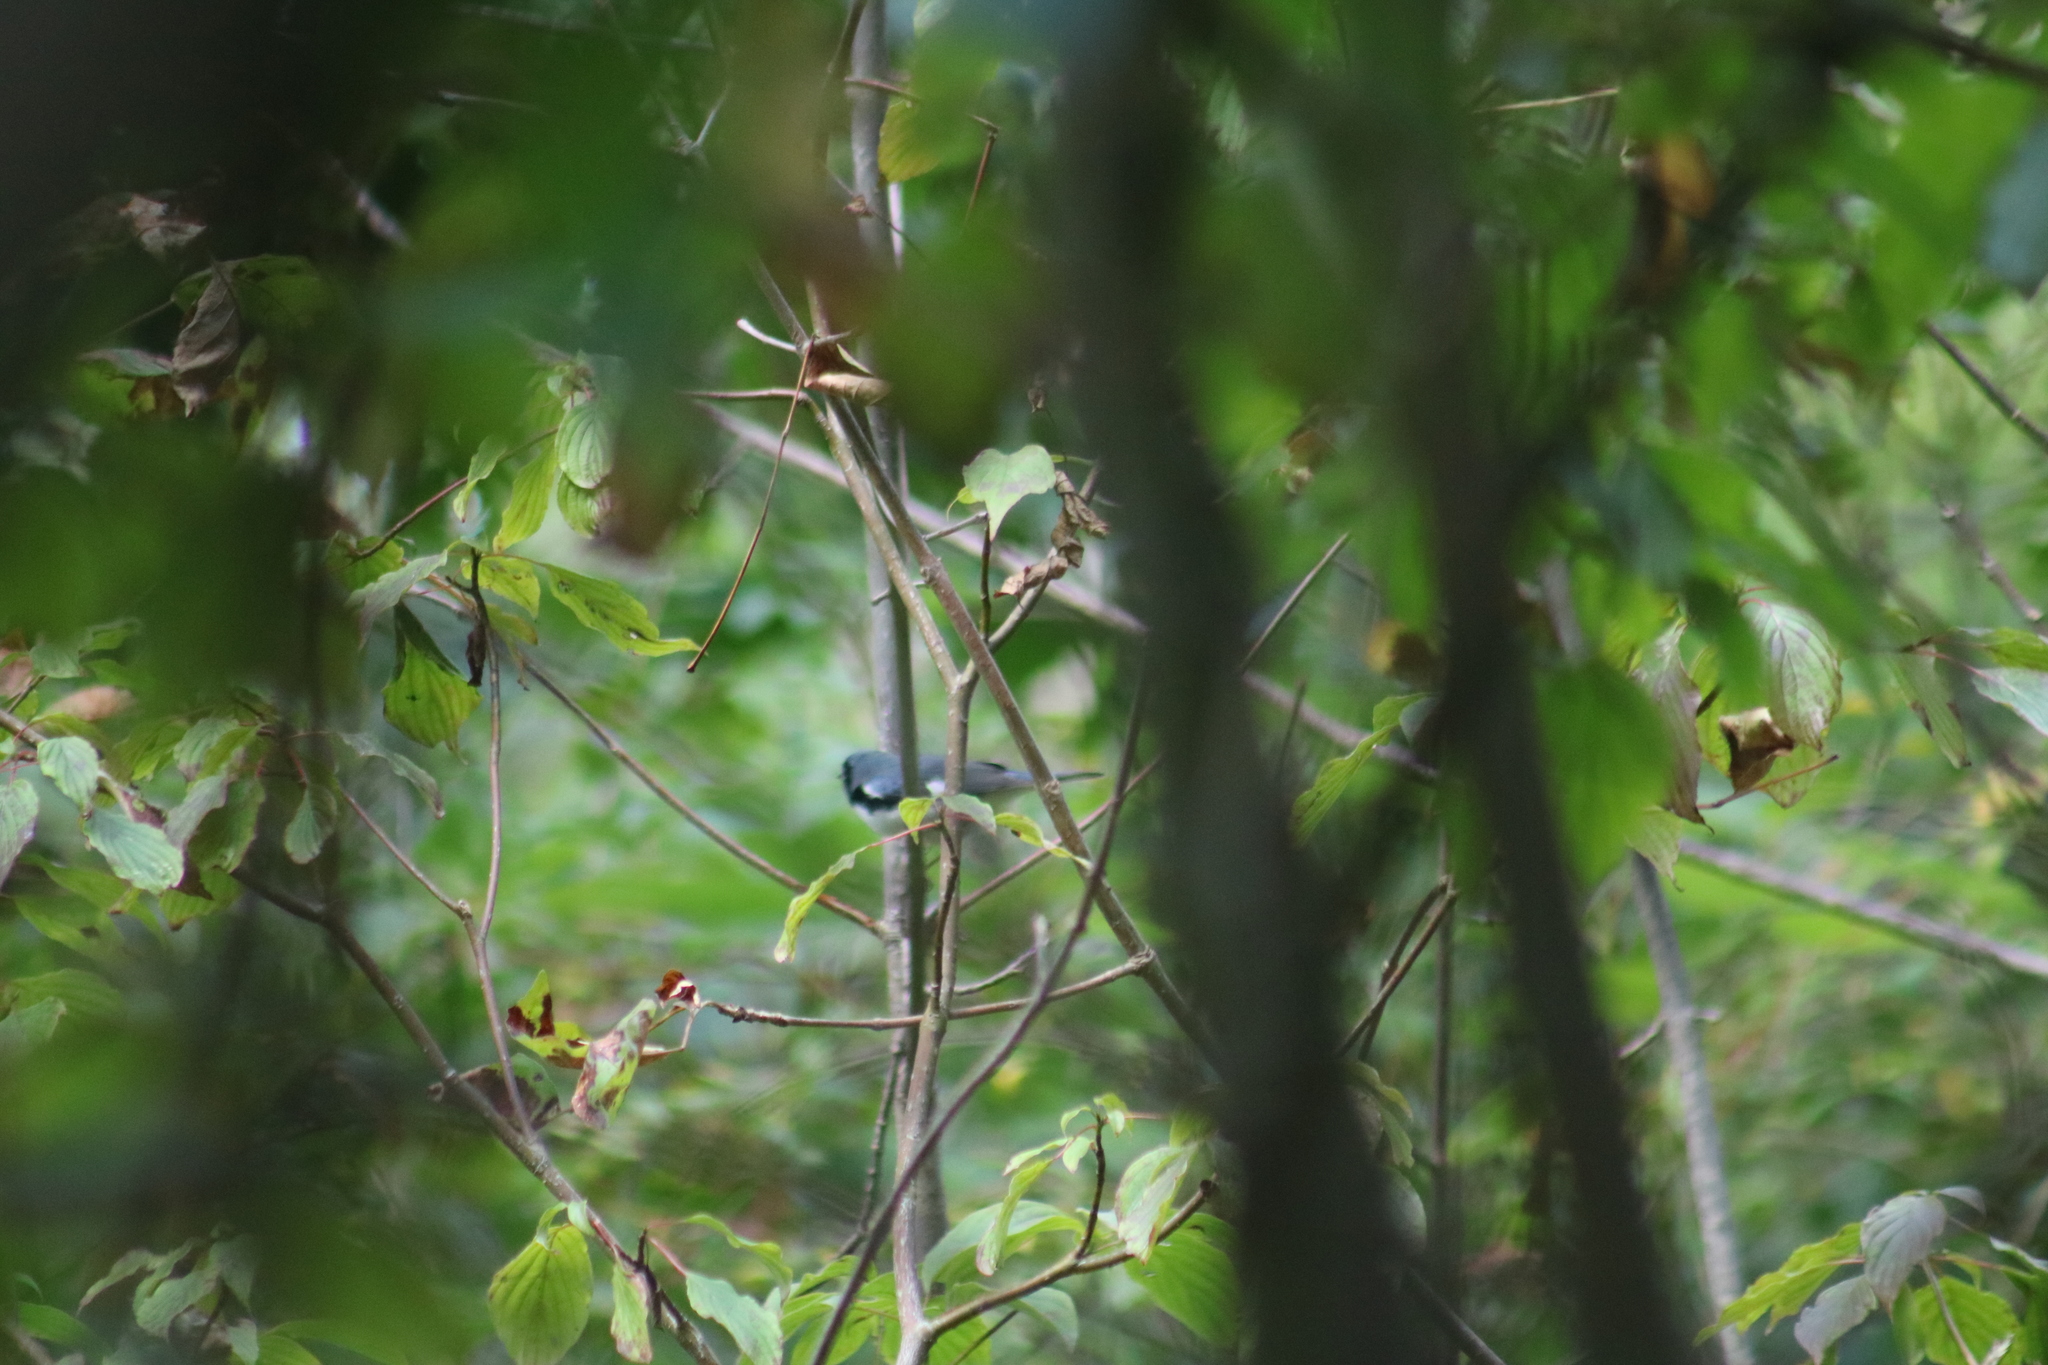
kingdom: Animalia
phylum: Chordata
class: Aves
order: Passeriformes
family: Parulidae
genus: Setophaga
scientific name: Setophaga caerulescens
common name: Black-throated blue warbler
